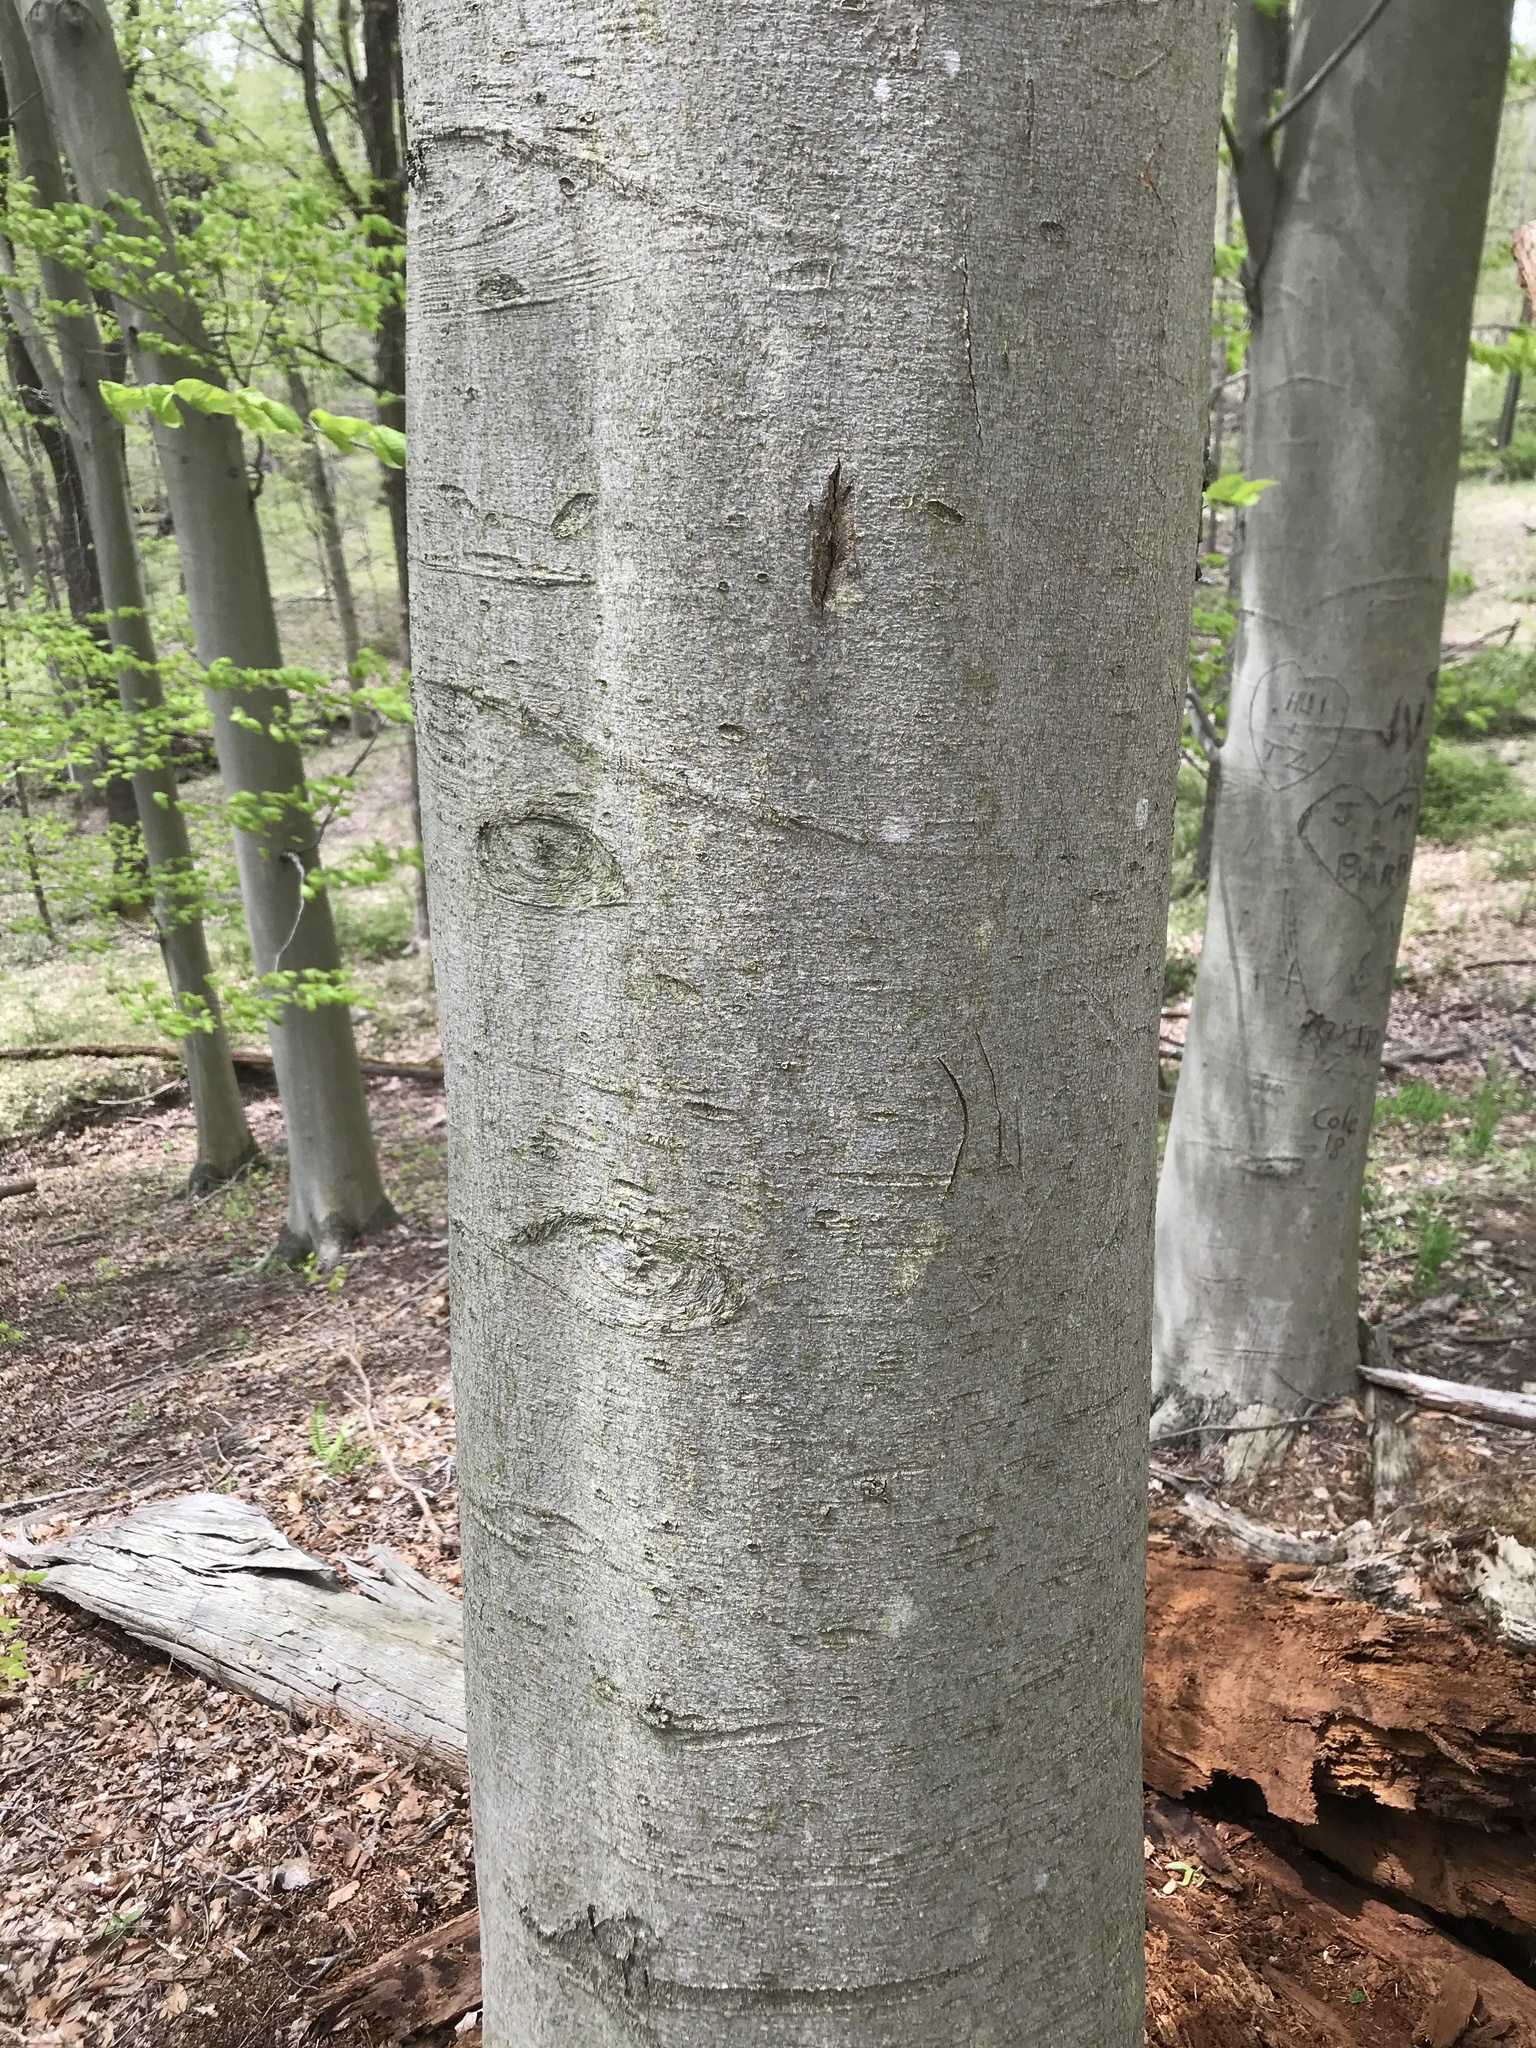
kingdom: Plantae
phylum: Tracheophyta
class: Magnoliopsida
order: Fagales
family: Fagaceae
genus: Fagus
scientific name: Fagus grandifolia
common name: American beech
